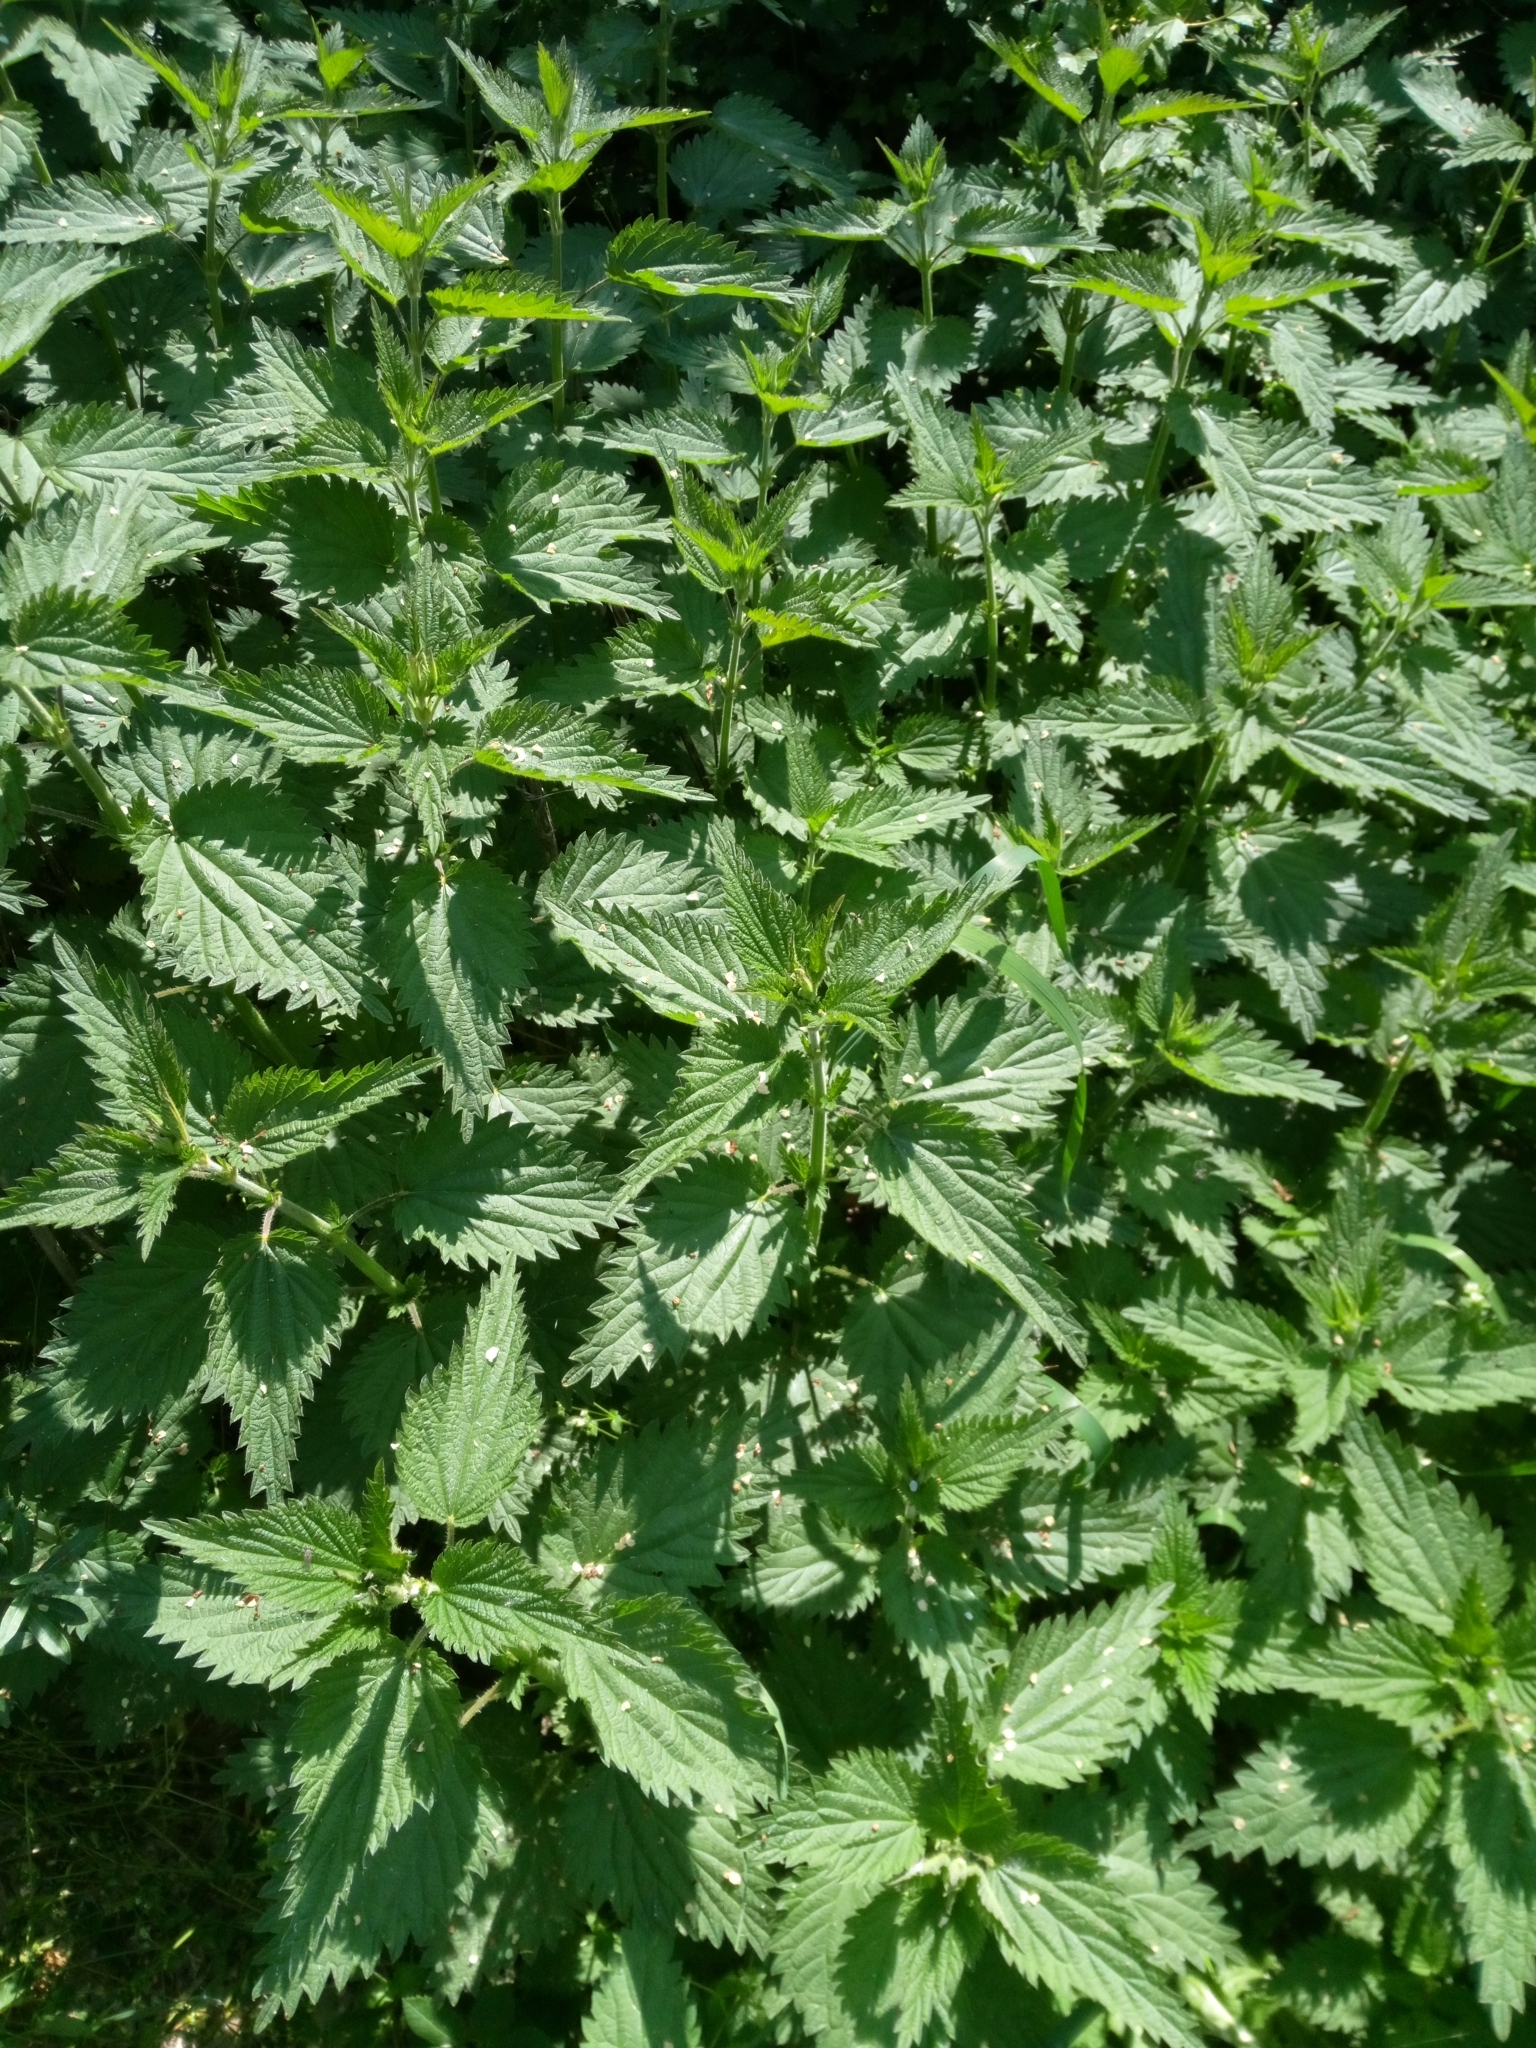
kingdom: Plantae
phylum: Tracheophyta
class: Magnoliopsida
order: Rosales
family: Urticaceae
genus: Urtica
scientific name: Urtica dioica
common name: Common nettle
